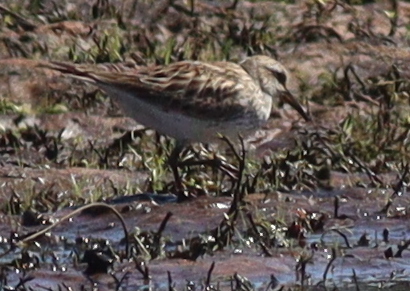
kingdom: Animalia
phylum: Chordata
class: Aves
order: Charadriiformes
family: Scolopacidae
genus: Calidris
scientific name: Calidris fuscicollis
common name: White-rumped sandpiper
